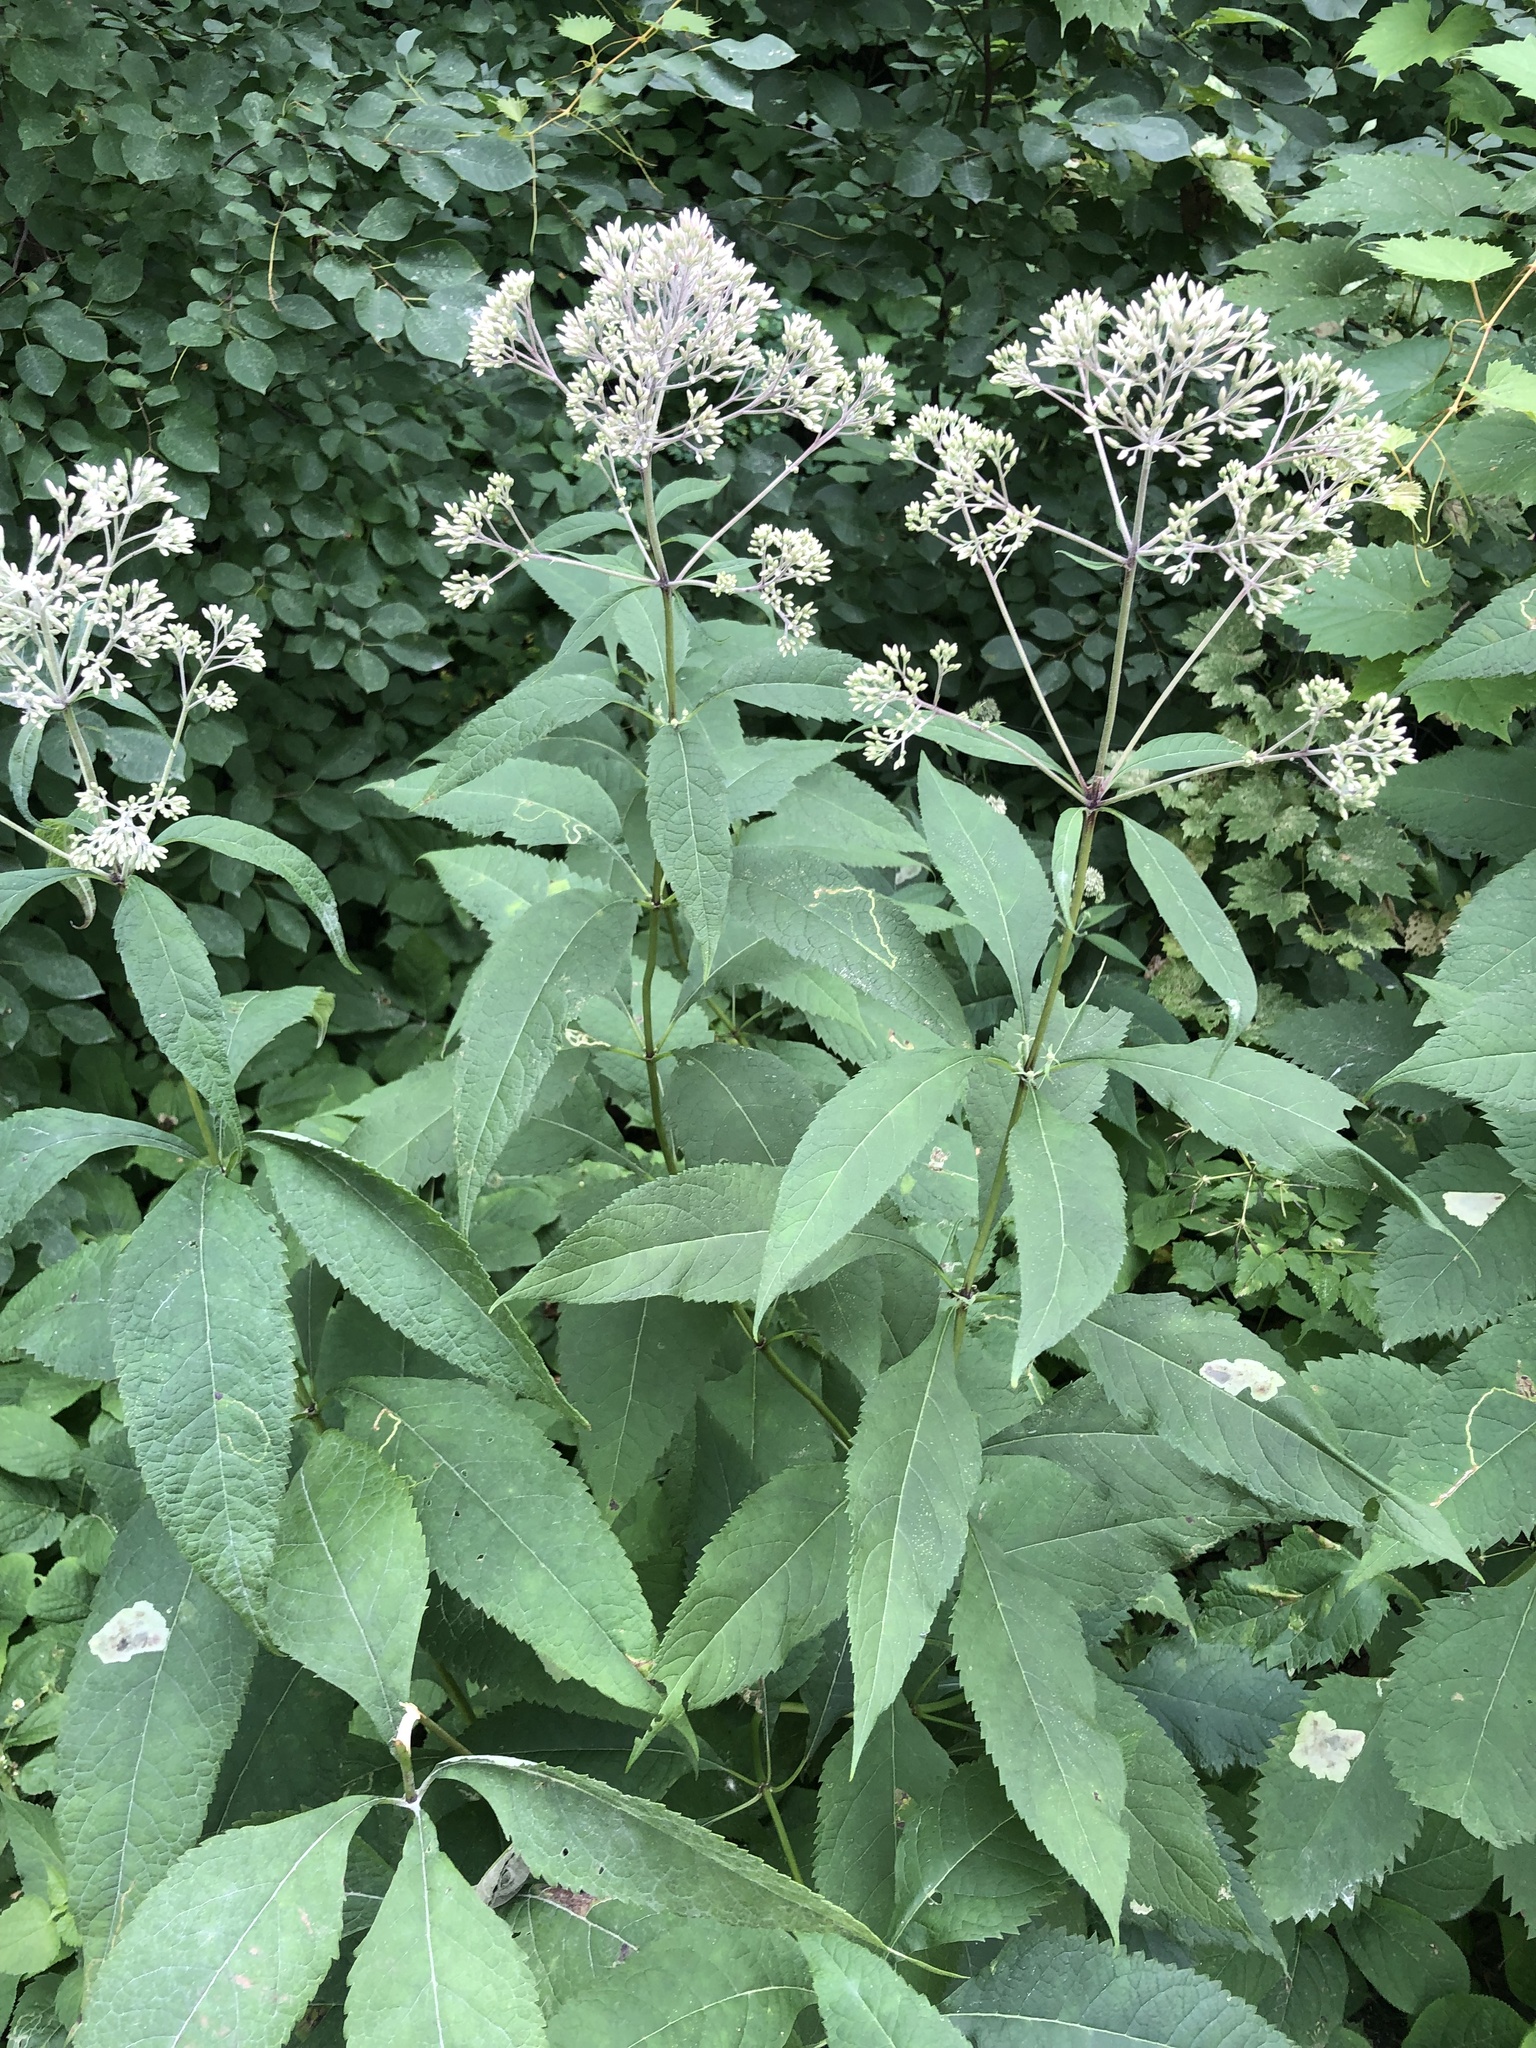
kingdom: Plantae
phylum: Tracheophyta
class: Magnoliopsida
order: Asterales
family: Asteraceae
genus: Eutrochium
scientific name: Eutrochium purpureum
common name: Gravelroot
